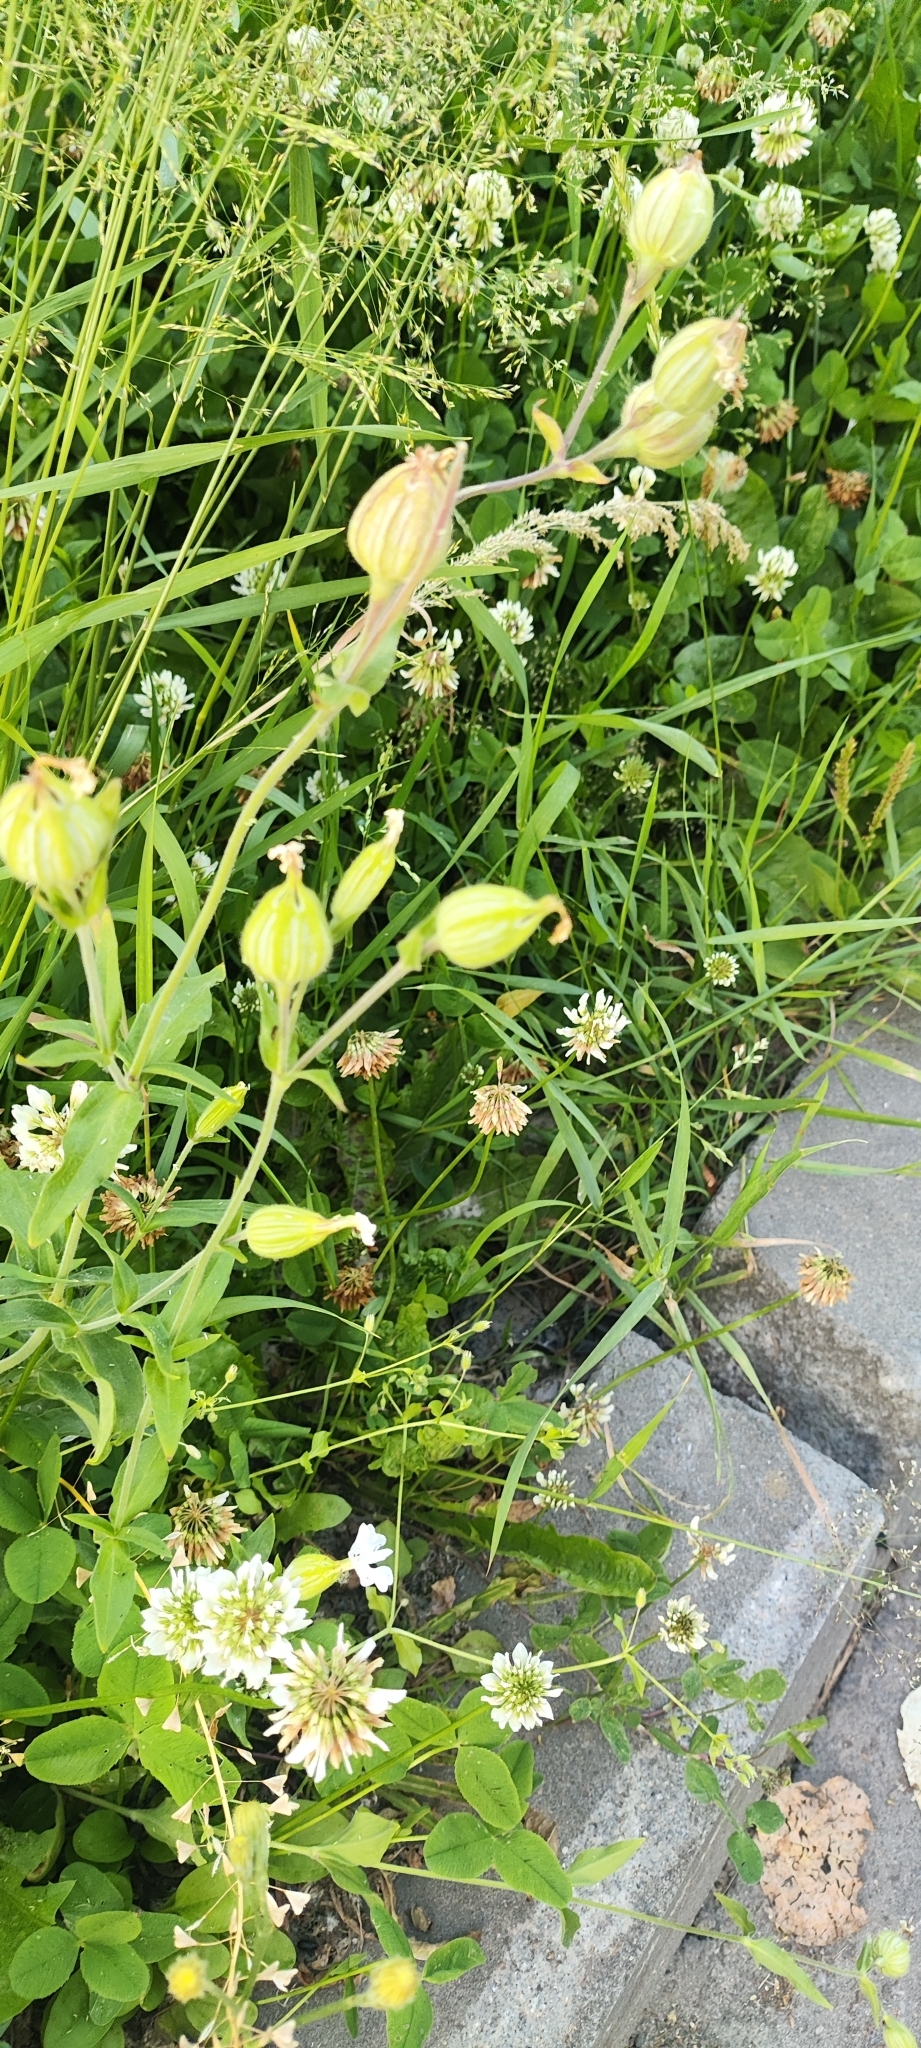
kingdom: Plantae
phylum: Tracheophyta
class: Magnoliopsida
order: Caryophyllales
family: Caryophyllaceae
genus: Silene
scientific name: Silene latifolia
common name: White campion
